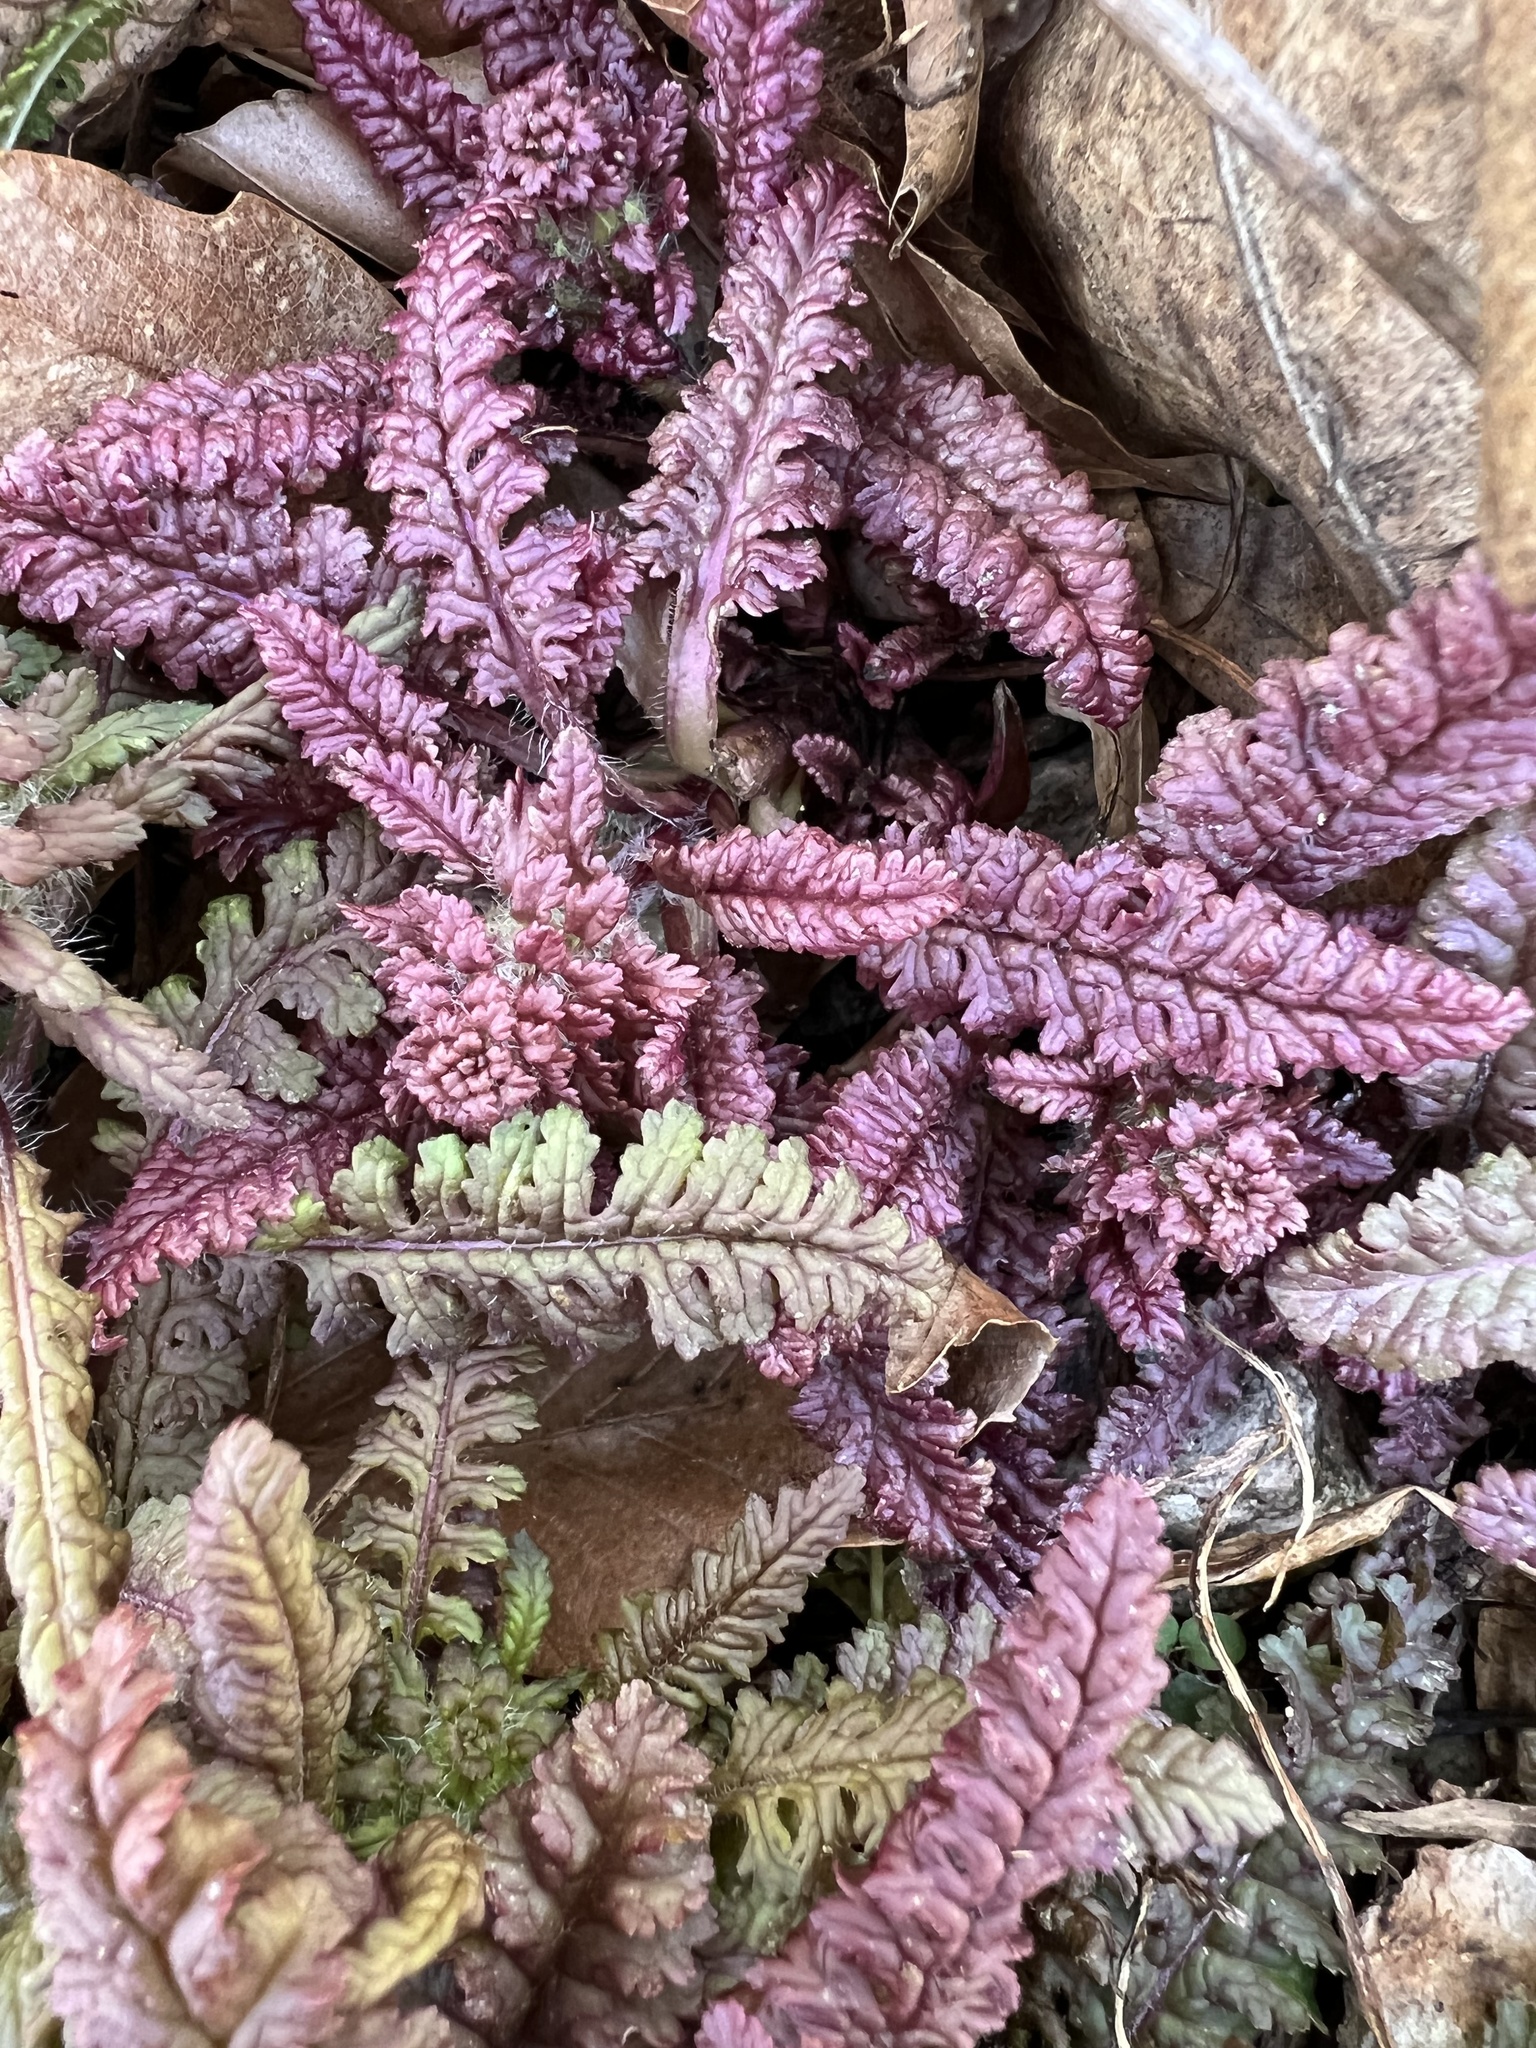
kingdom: Plantae
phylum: Tracheophyta
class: Magnoliopsida
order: Lamiales
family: Orobanchaceae
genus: Pedicularis
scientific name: Pedicularis canadensis
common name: Early lousewort
